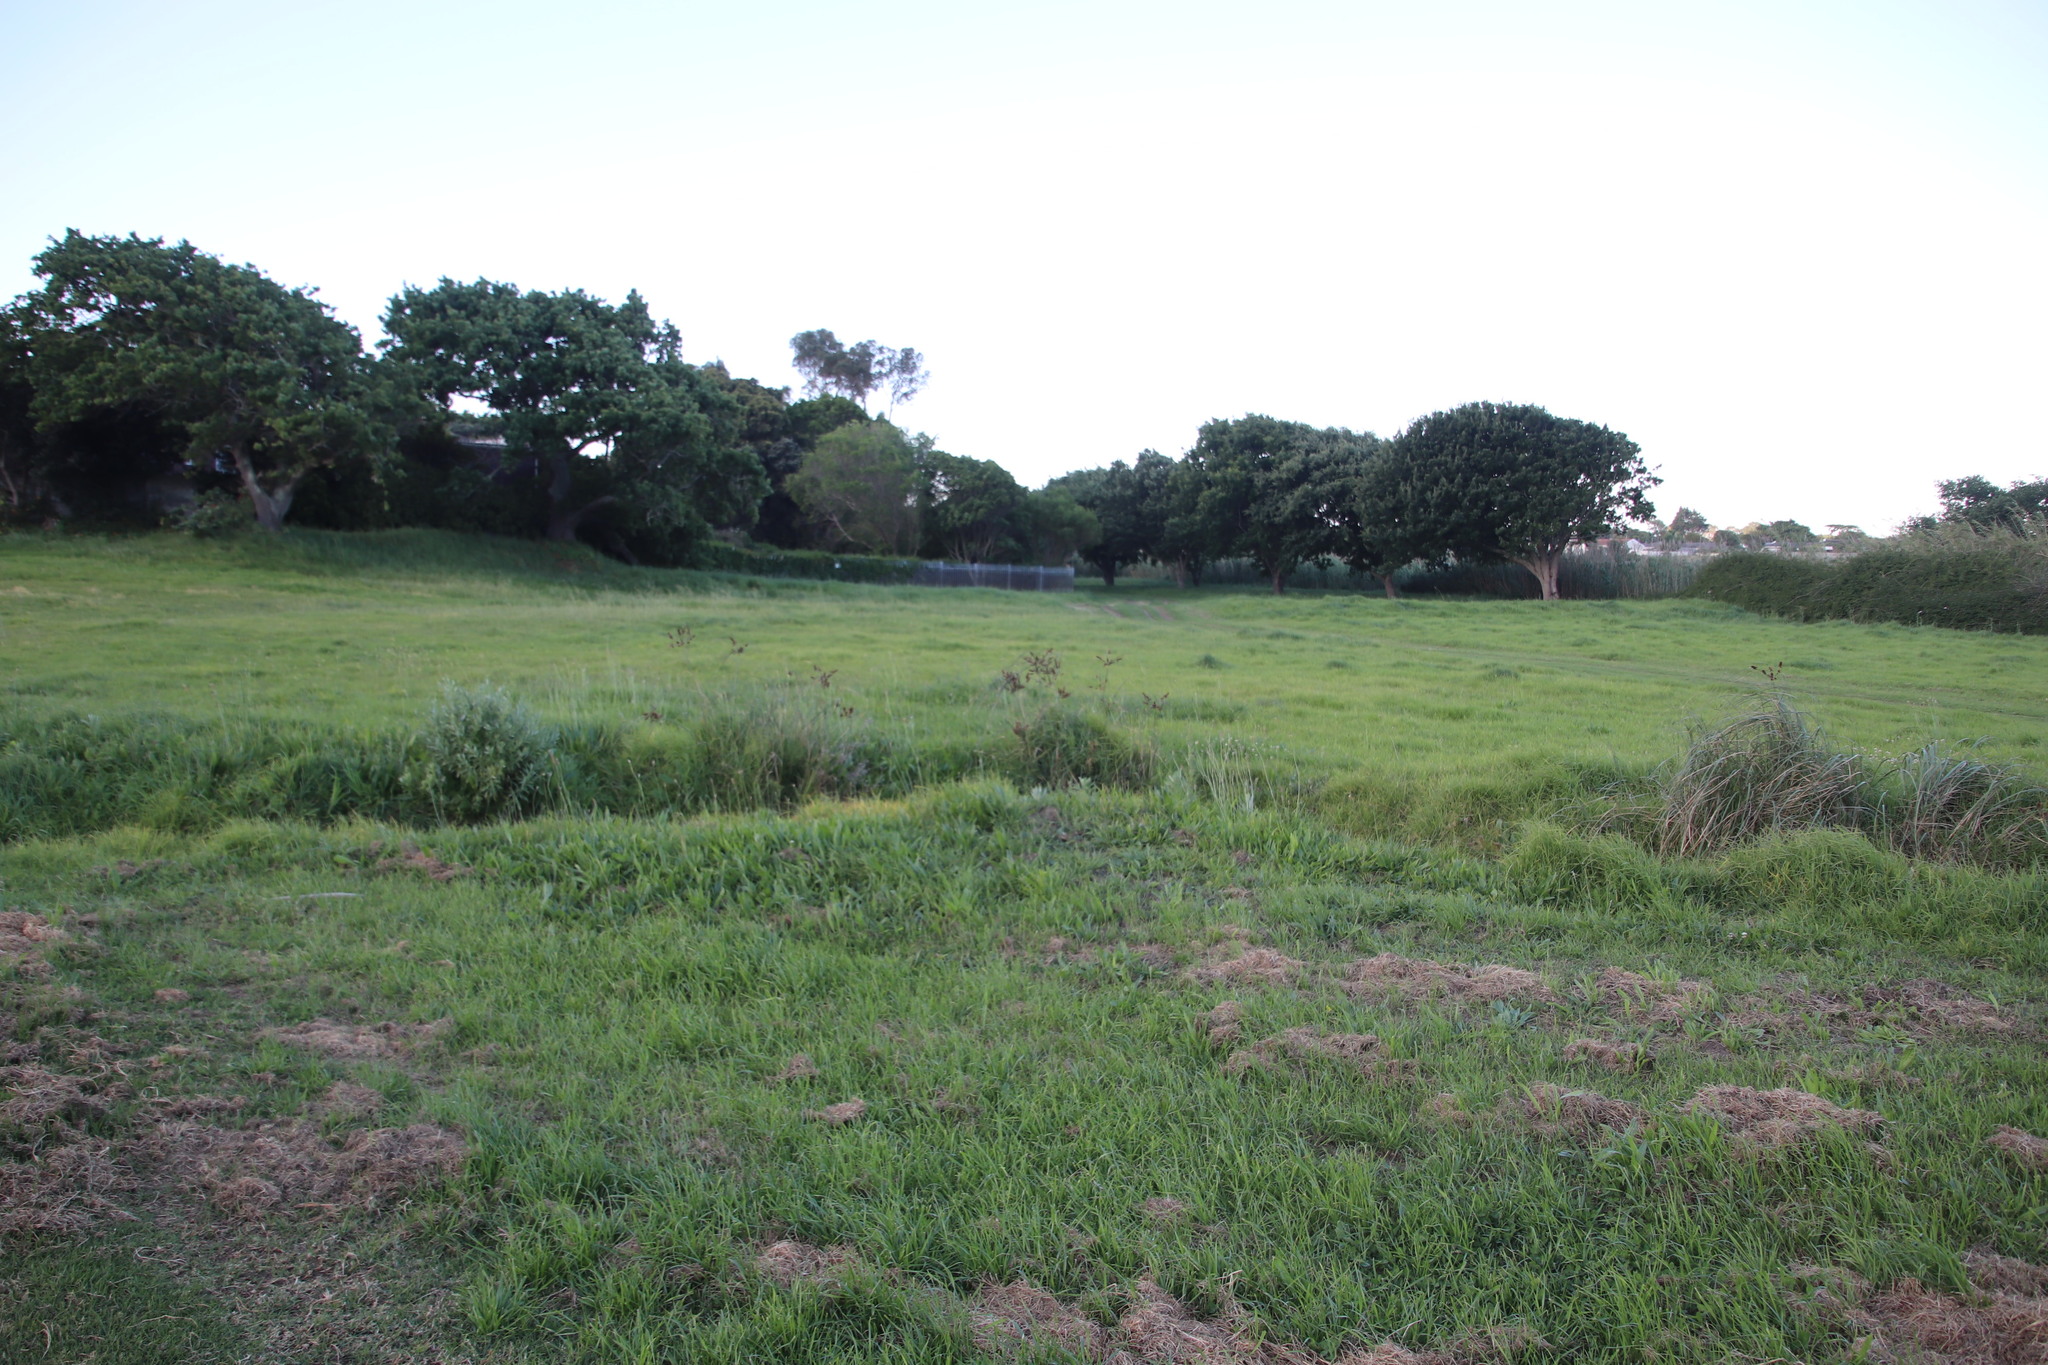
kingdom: Plantae
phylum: Tracheophyta
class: Liliopsida
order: Poales
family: Cyperaceae
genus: Cyperus
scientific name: Cyperus thunbergii
